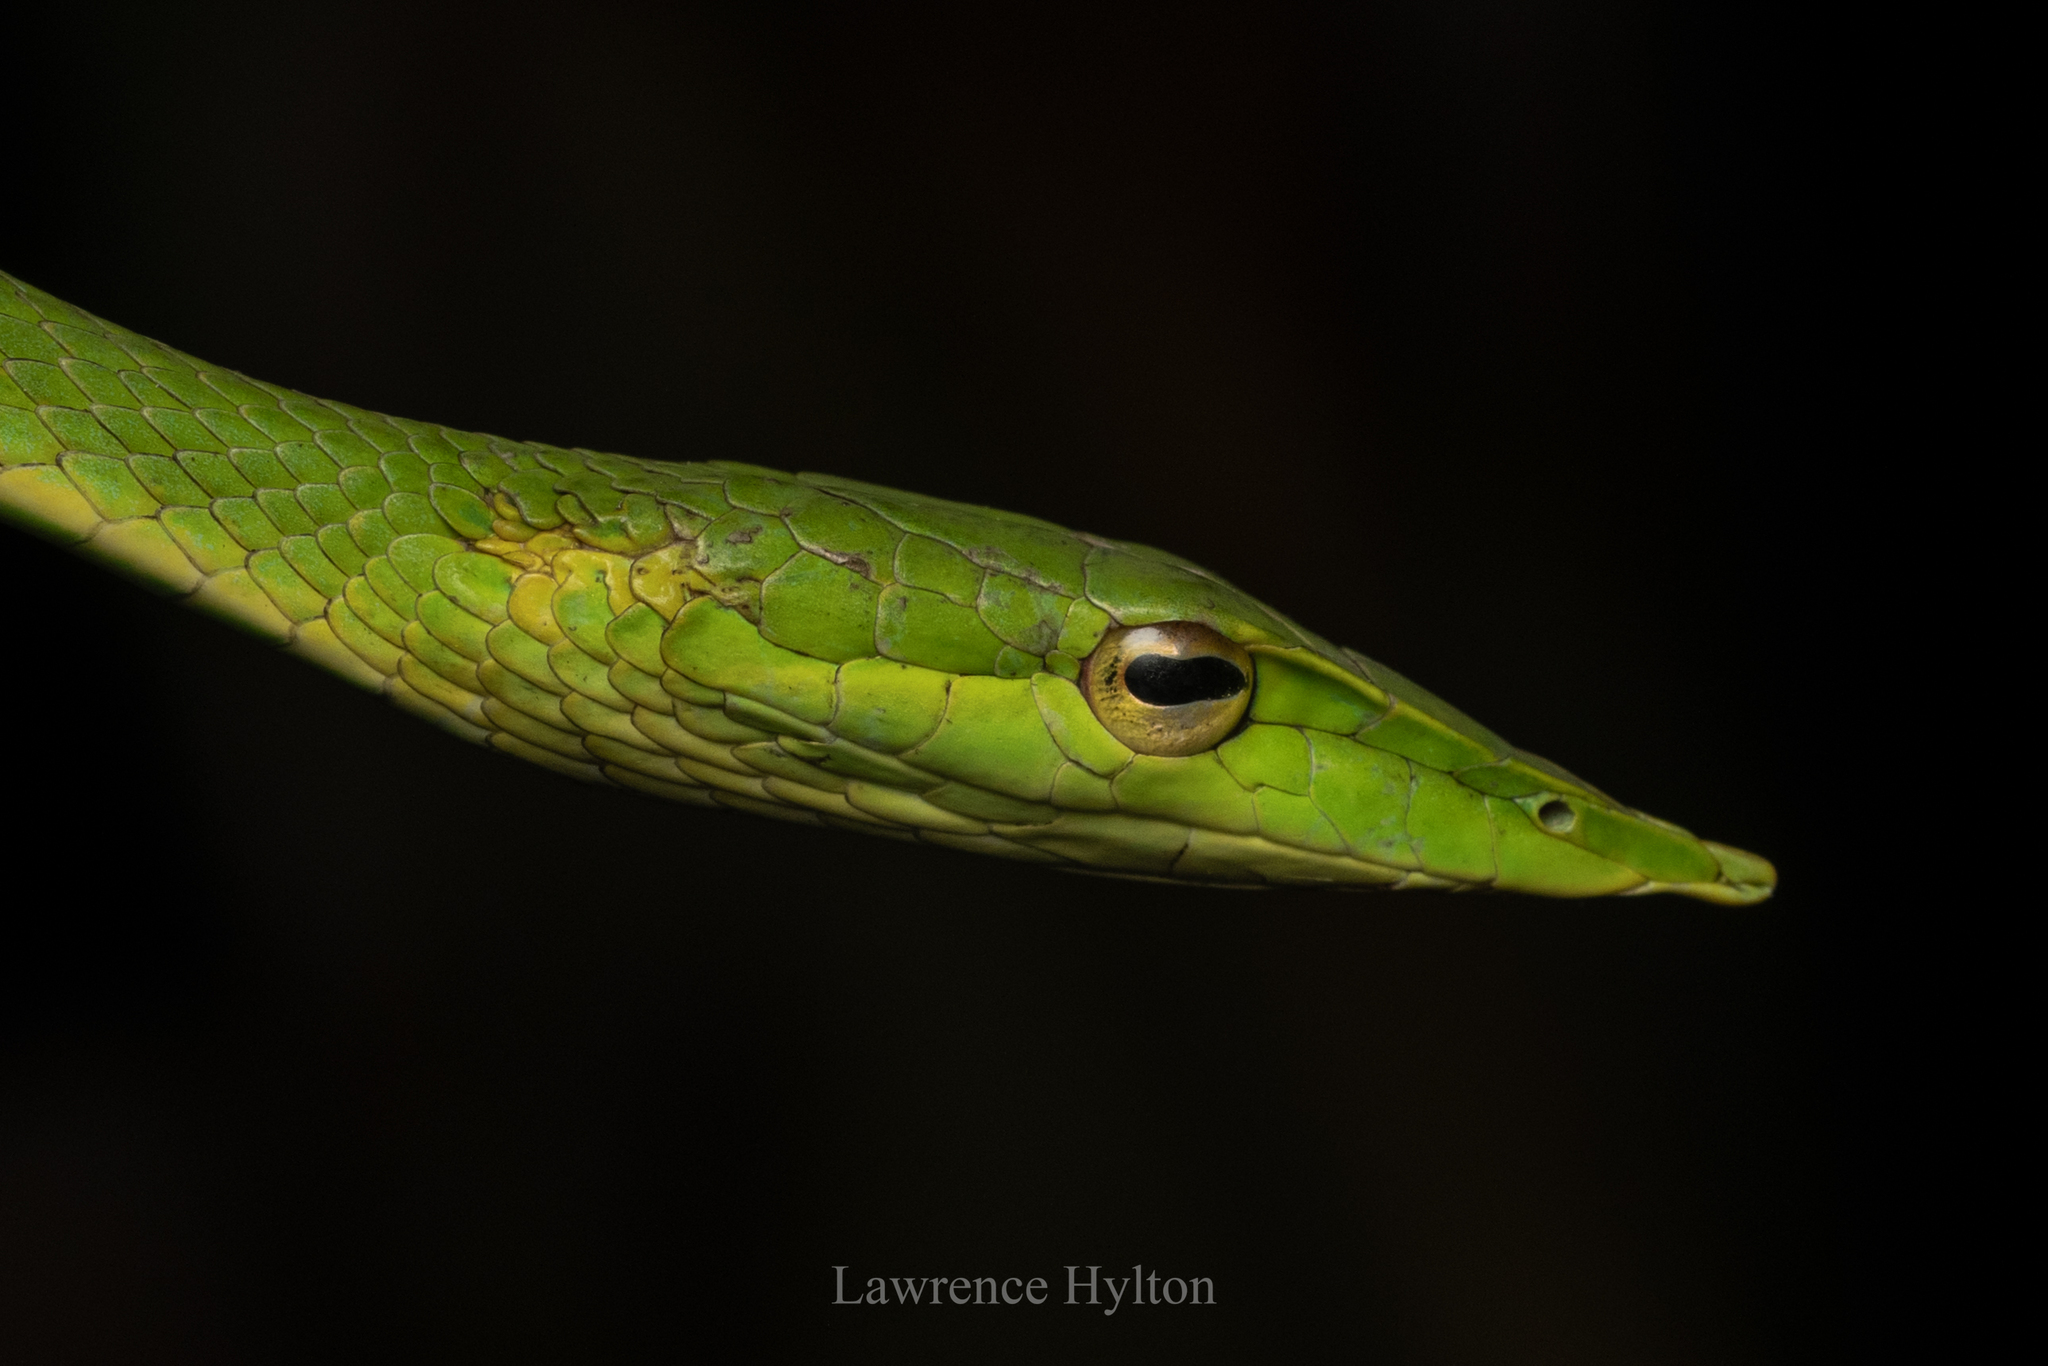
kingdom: Animalia
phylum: Chordata
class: Squamata
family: Colubridae
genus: Ahaetulla
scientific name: Ahaetulla
